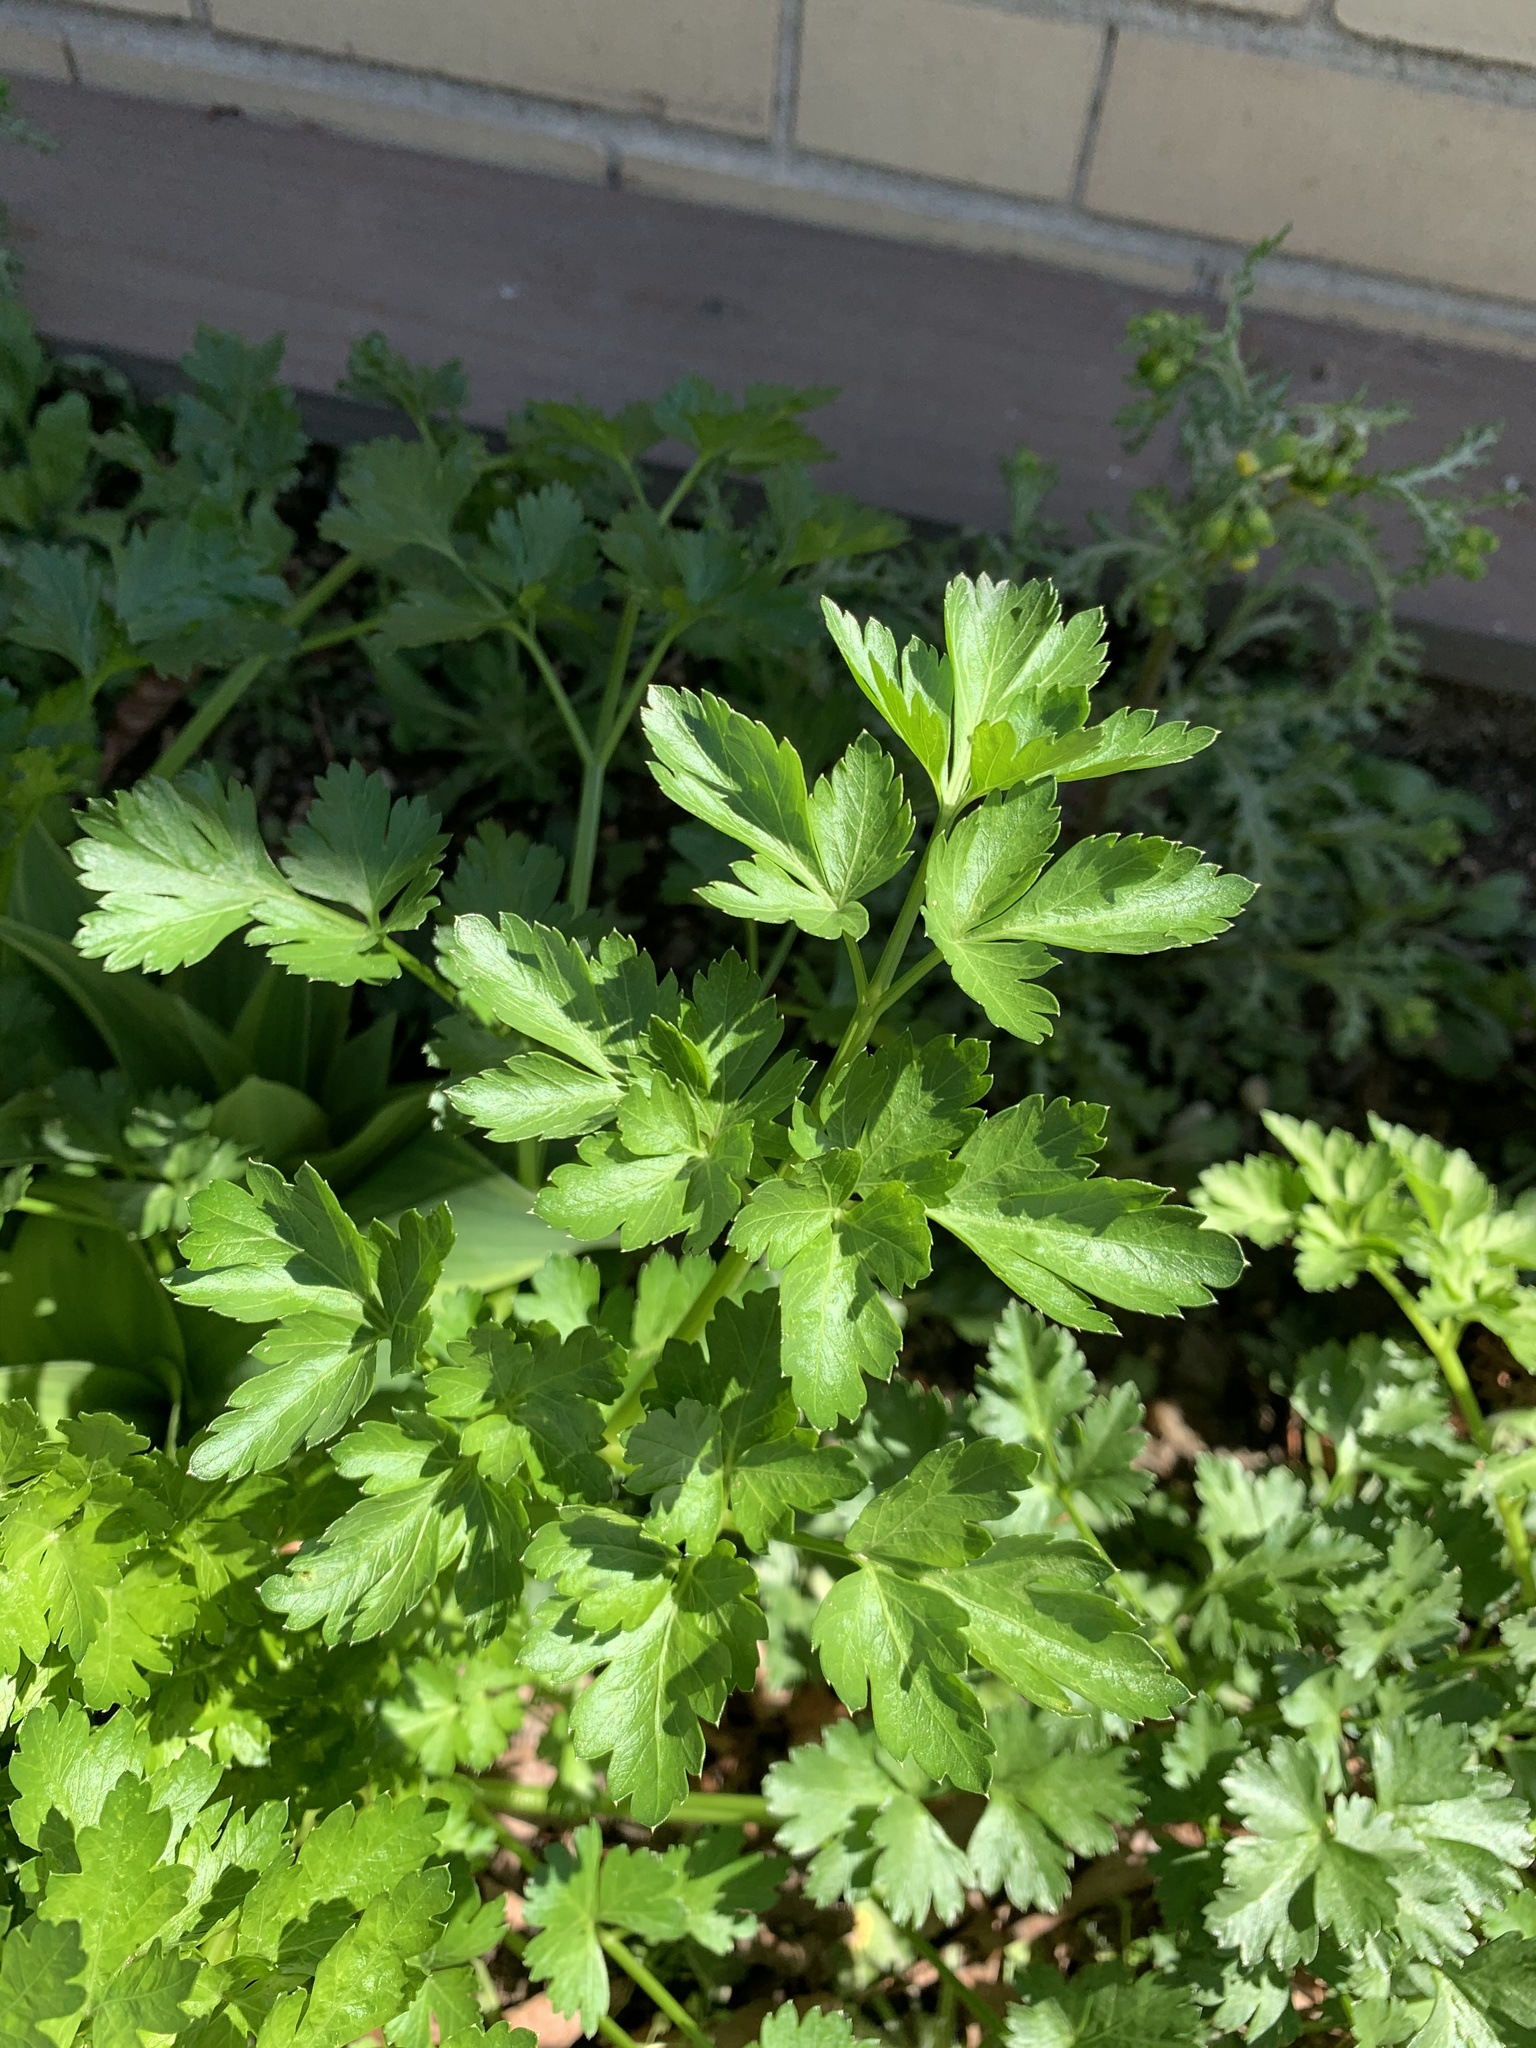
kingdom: Plantae
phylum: Tracheophyta
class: Magnoliopsida
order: Apiales
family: Apiaceae
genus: Petroselinum
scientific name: Petroselinum crispum
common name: Parsley
